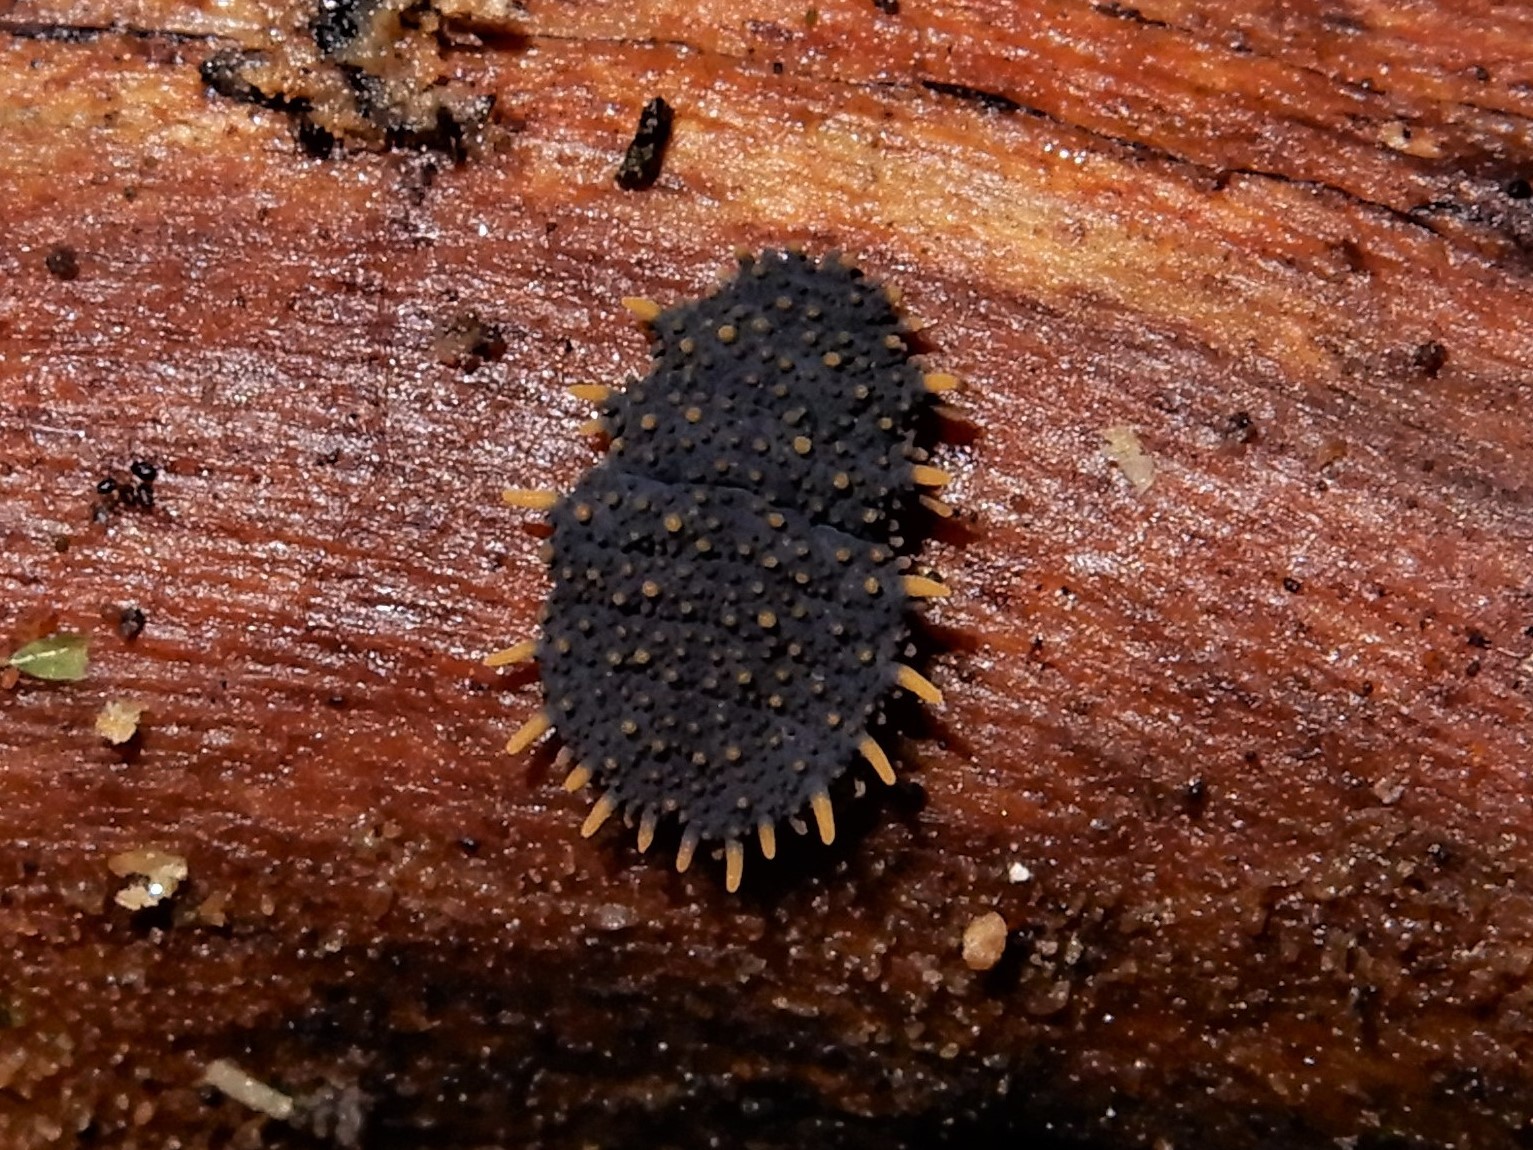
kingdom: Animalia
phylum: Arthropoda
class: Collembola
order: Poduromorpha
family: Neanuridae
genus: Holacanthella
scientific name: Holacanthella paucispinosa
